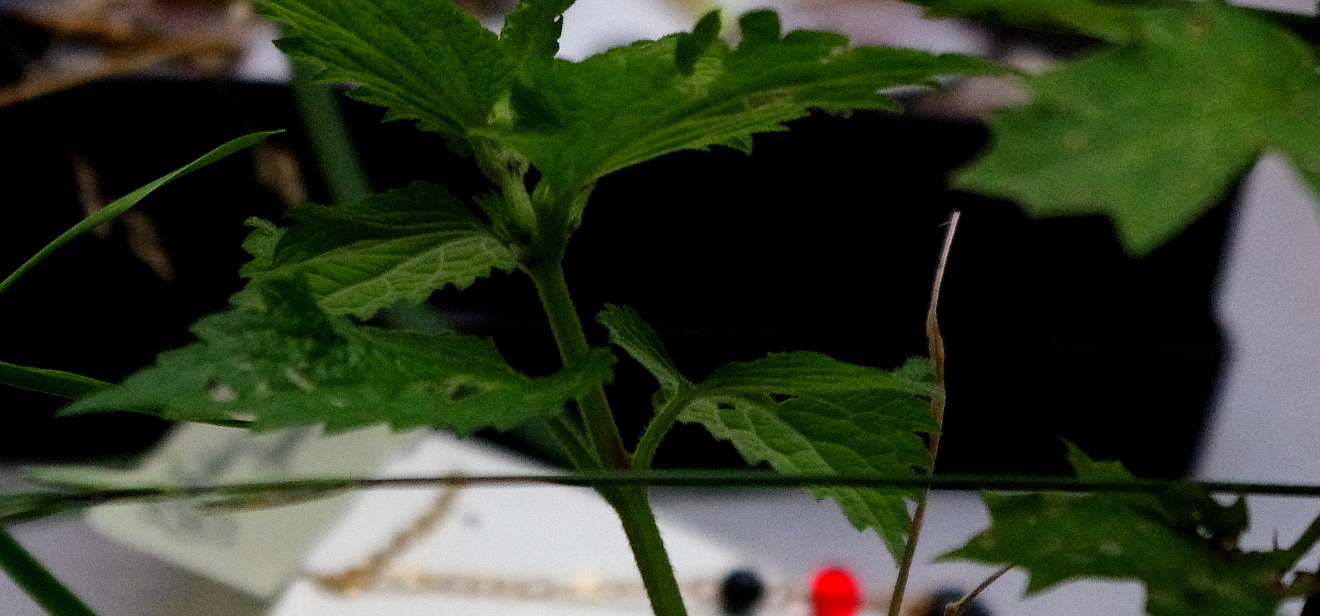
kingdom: Plantae
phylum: Tracheophyta
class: Magnoliopsida
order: Lamiales
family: Lamiaceae
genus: Lamium
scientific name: Lamium album
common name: White dead-nettle
